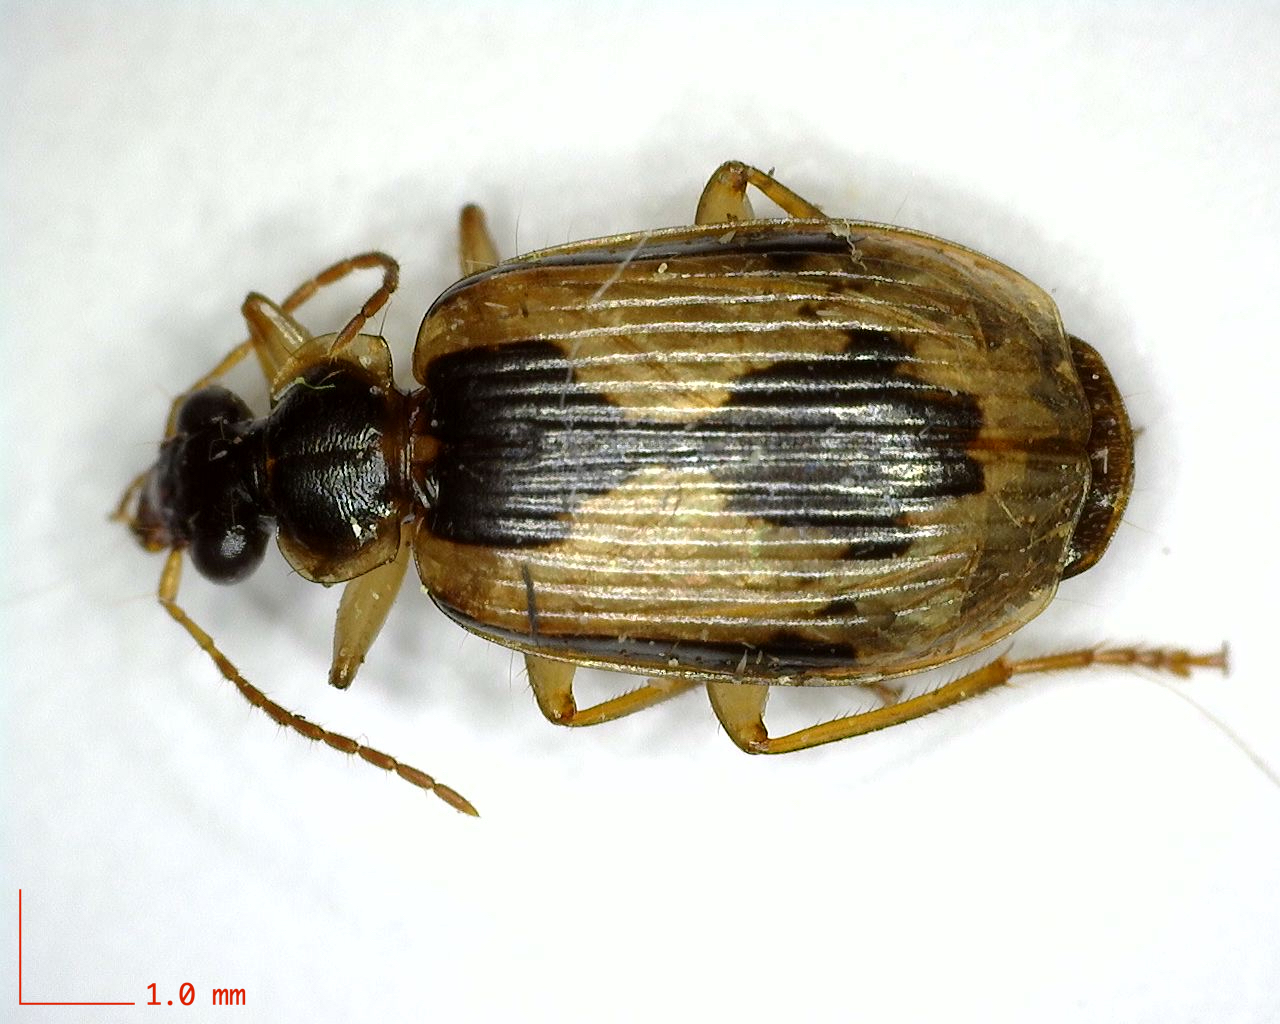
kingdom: Animalia
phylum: Arthropoda
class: Insecta
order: Coleoptera
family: Carabidae
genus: Lebia
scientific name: Lebia fuscata
